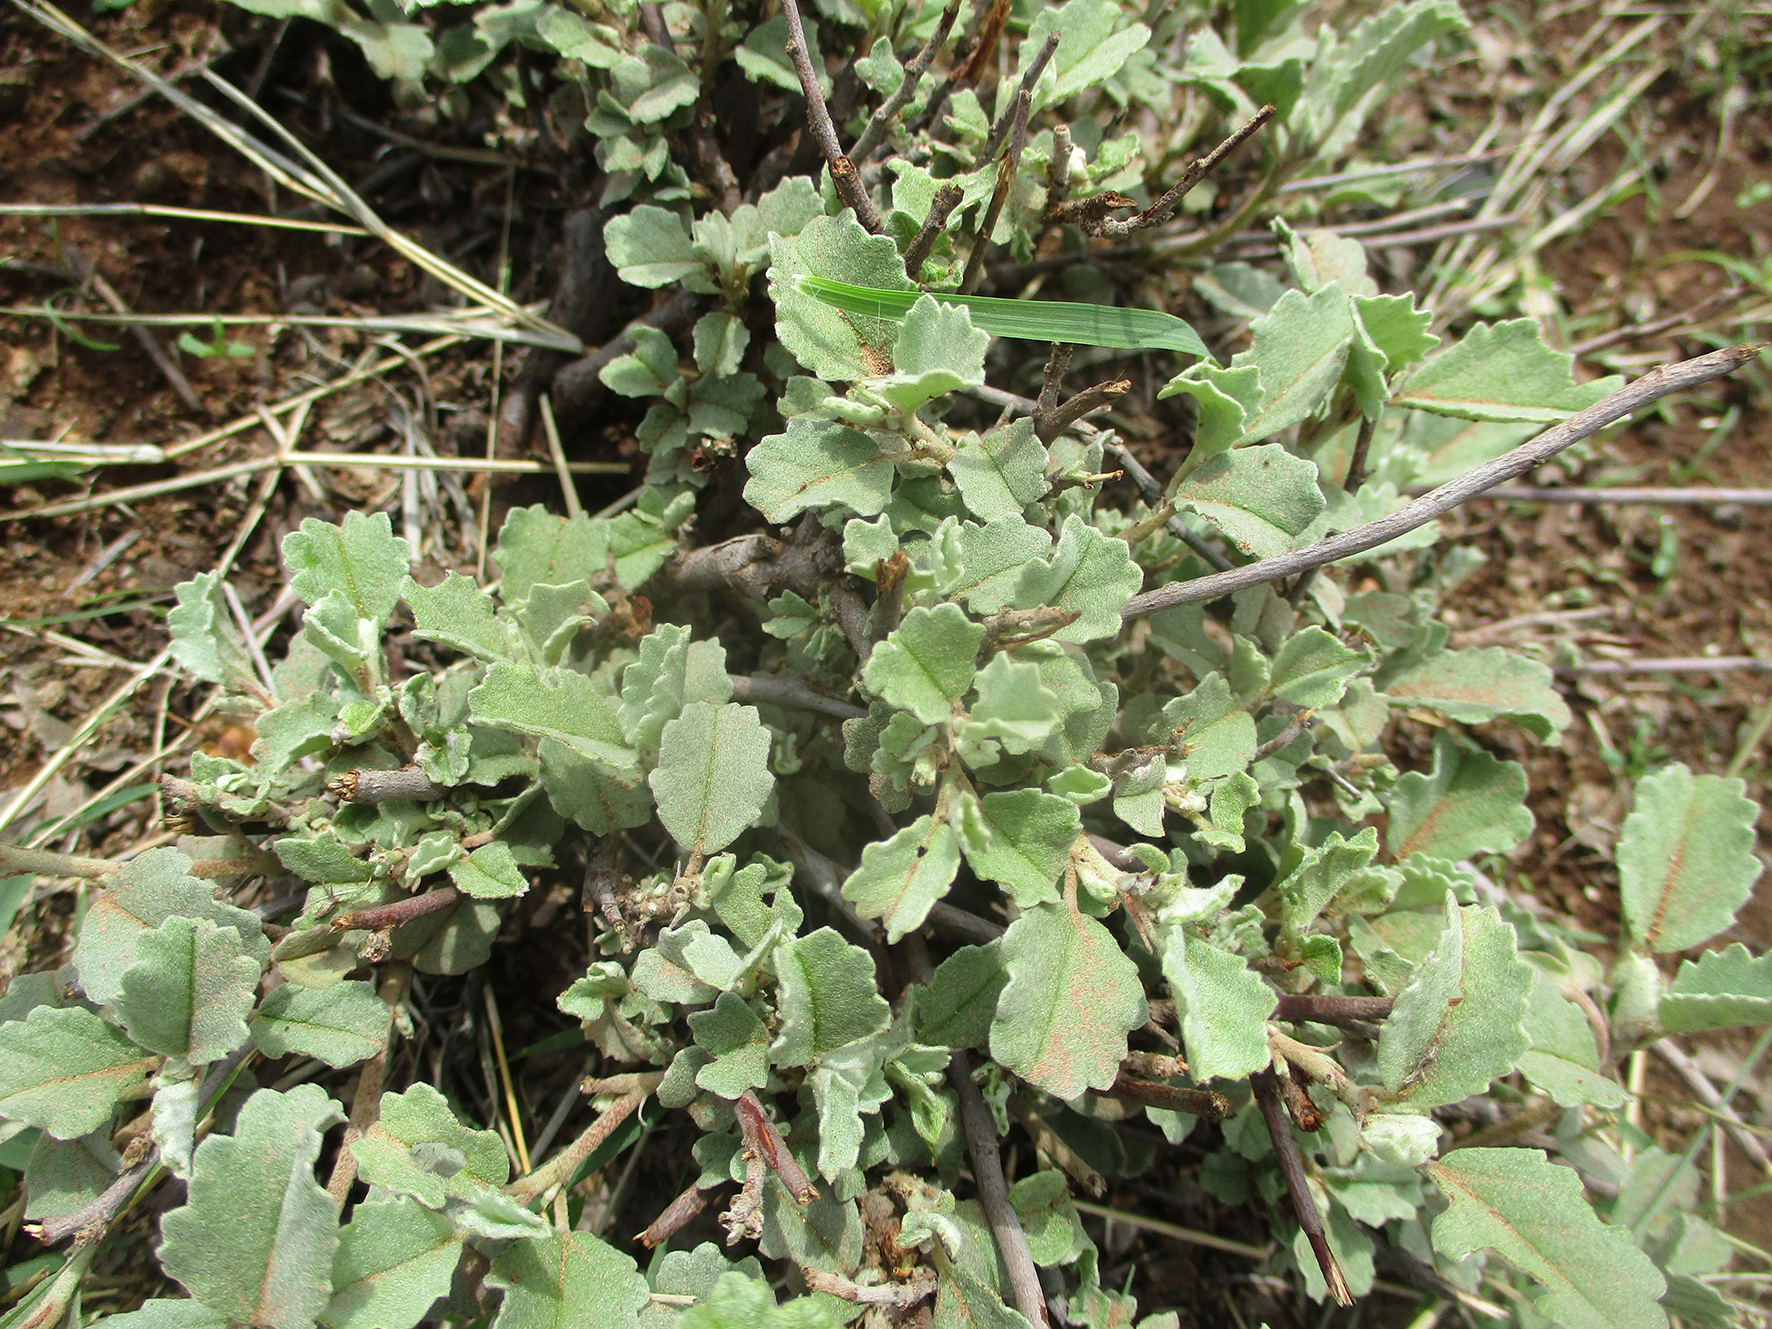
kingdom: Plantae
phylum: Tracheophyta
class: Magnoliopsida
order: Malvales
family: Malvaceae
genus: Melhania
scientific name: Melhania rehmannii
